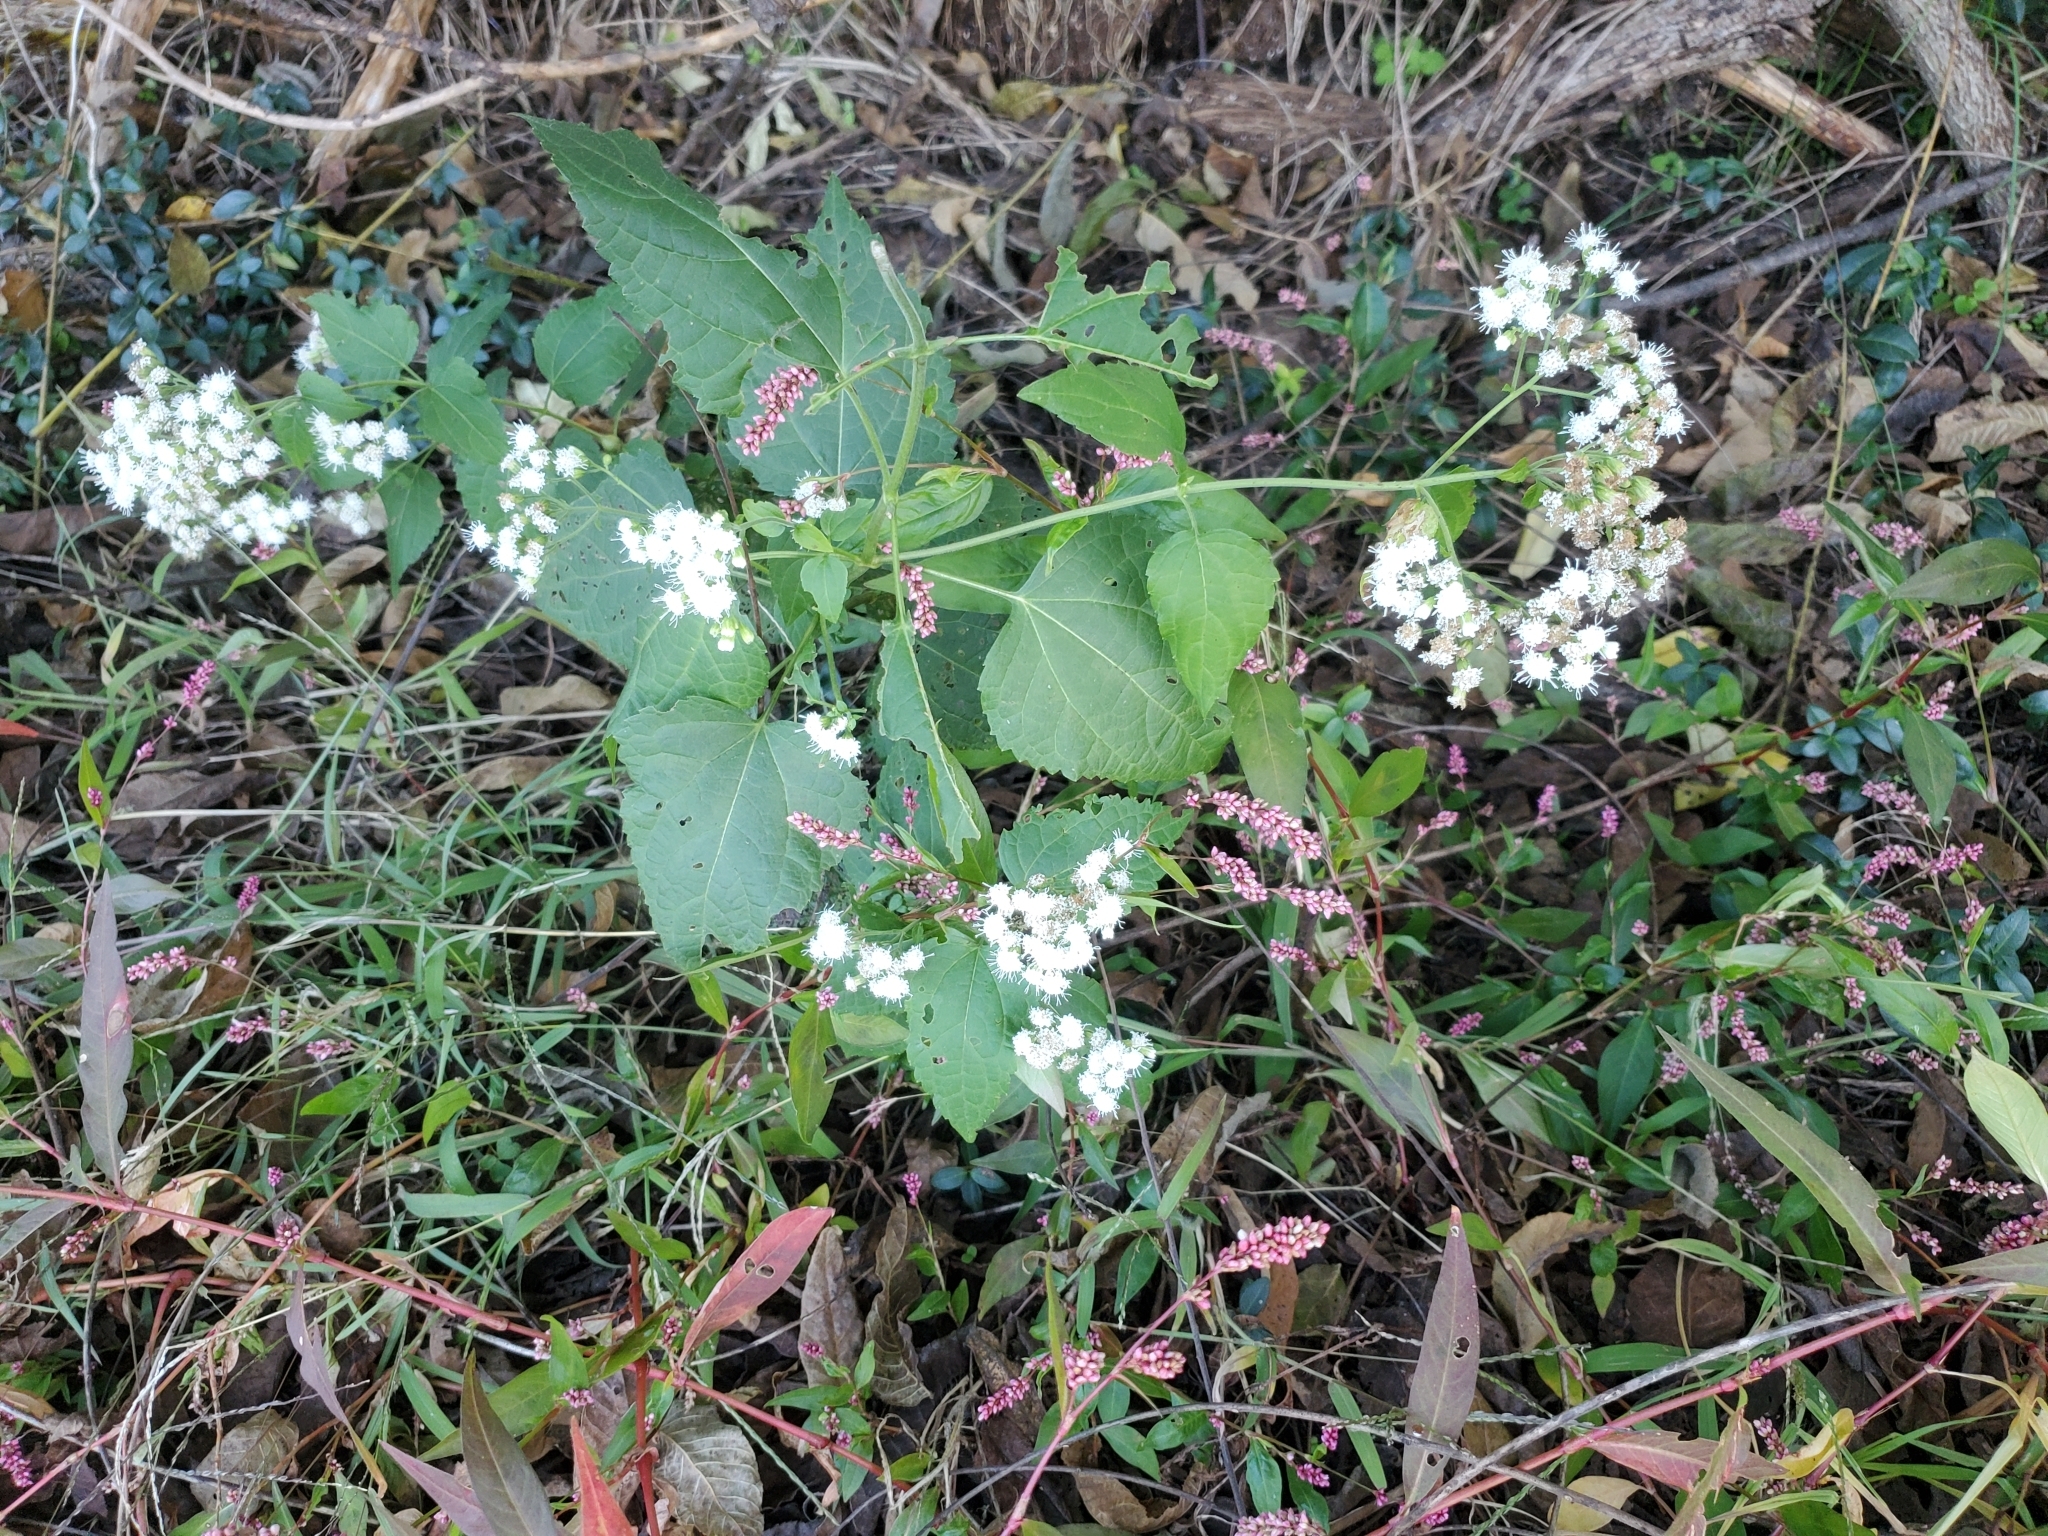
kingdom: Plantae
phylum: Tracheophyta
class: Magnoliopsida
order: Asterales
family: Asteraceae
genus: Ageratina
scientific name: Ageratina altissima
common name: White snakeroot
